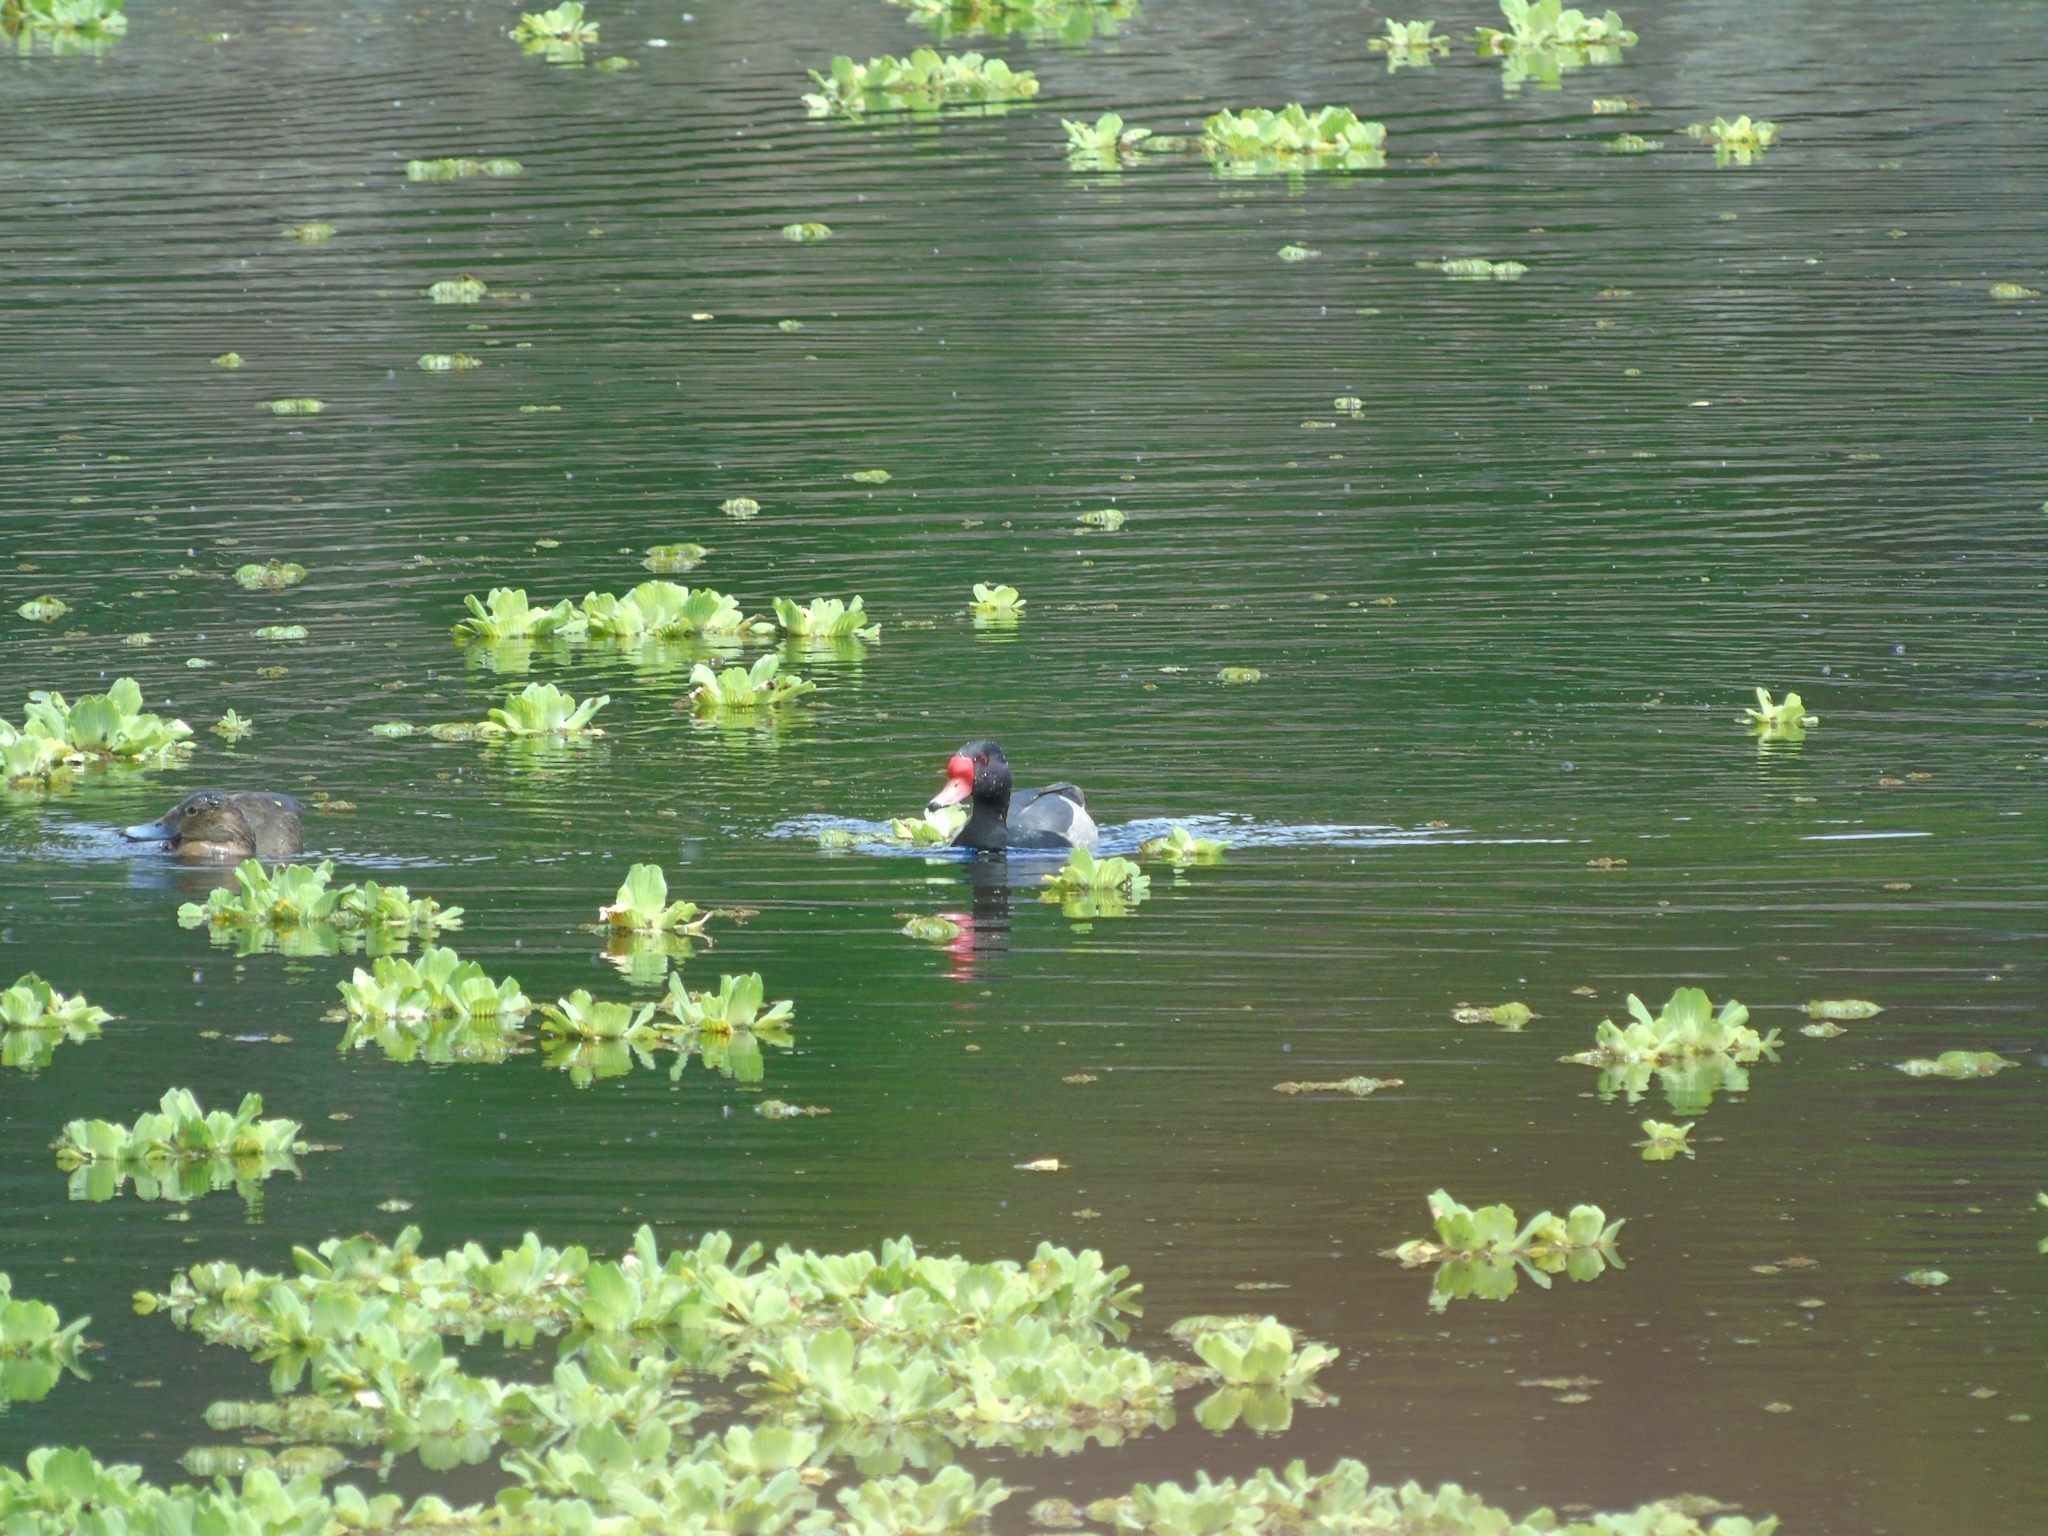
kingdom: Animalia
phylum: Chordata
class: Aves
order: Anseriformes
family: Anatidae
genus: Netta
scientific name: Netta peposaca
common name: Rosy-billed pochard
